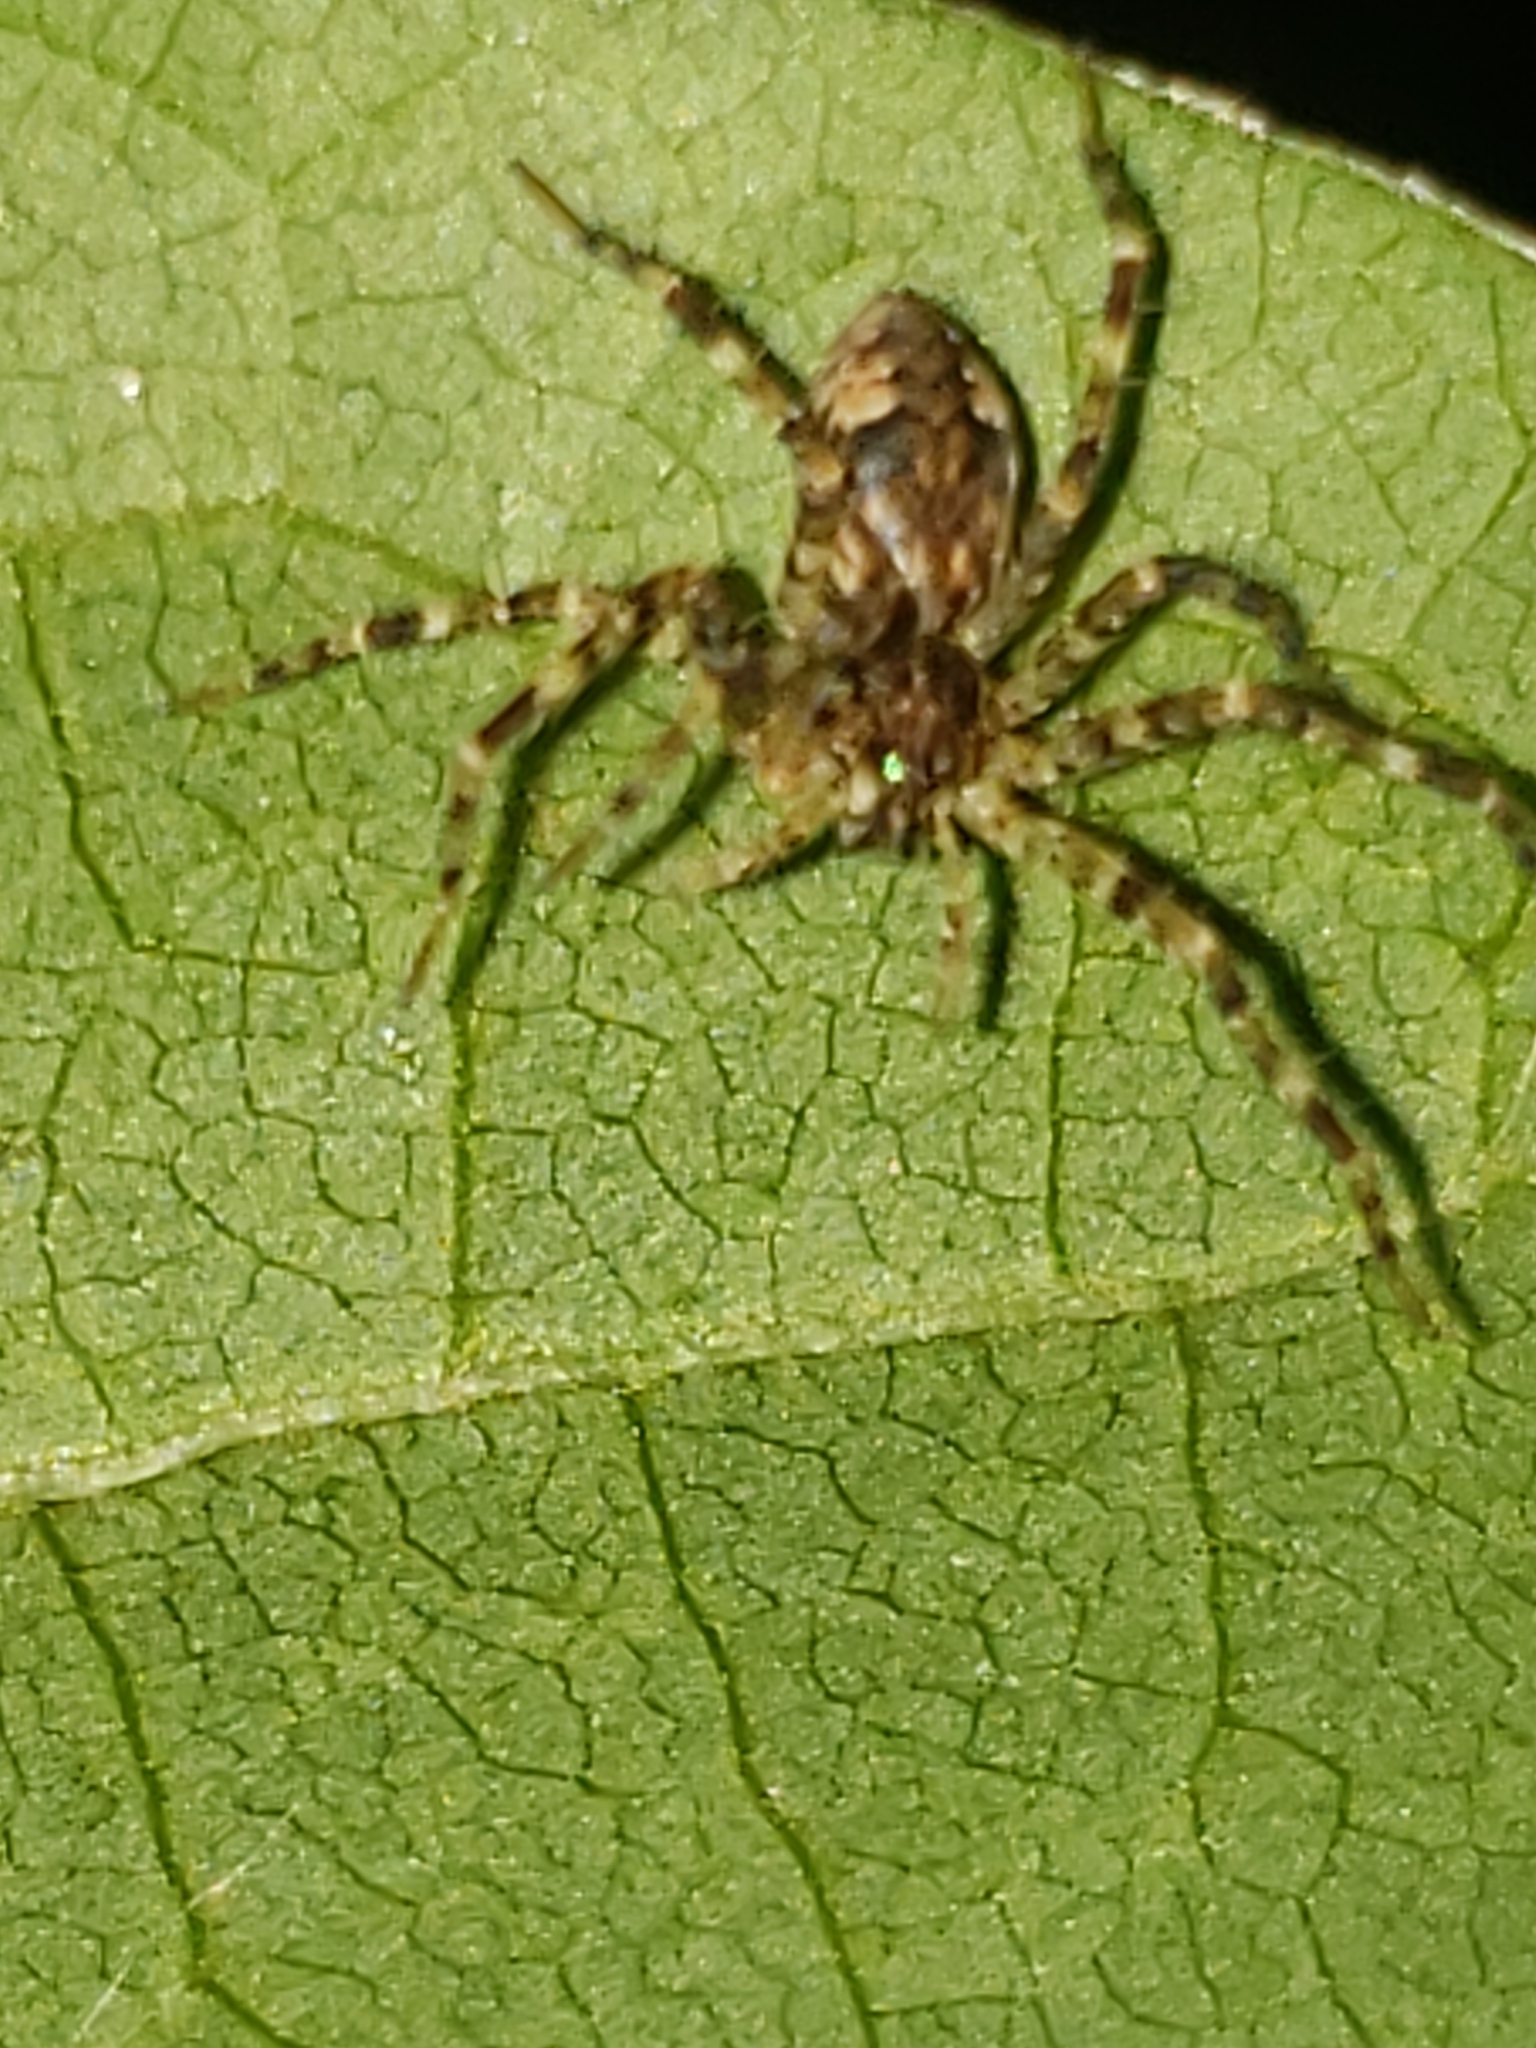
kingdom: Animalia
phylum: Arthropoda
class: Arachnida
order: Araneae
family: Pisauridae
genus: Dolomedes
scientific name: Dolomedes tenebrosus
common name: Dark fishing spider
